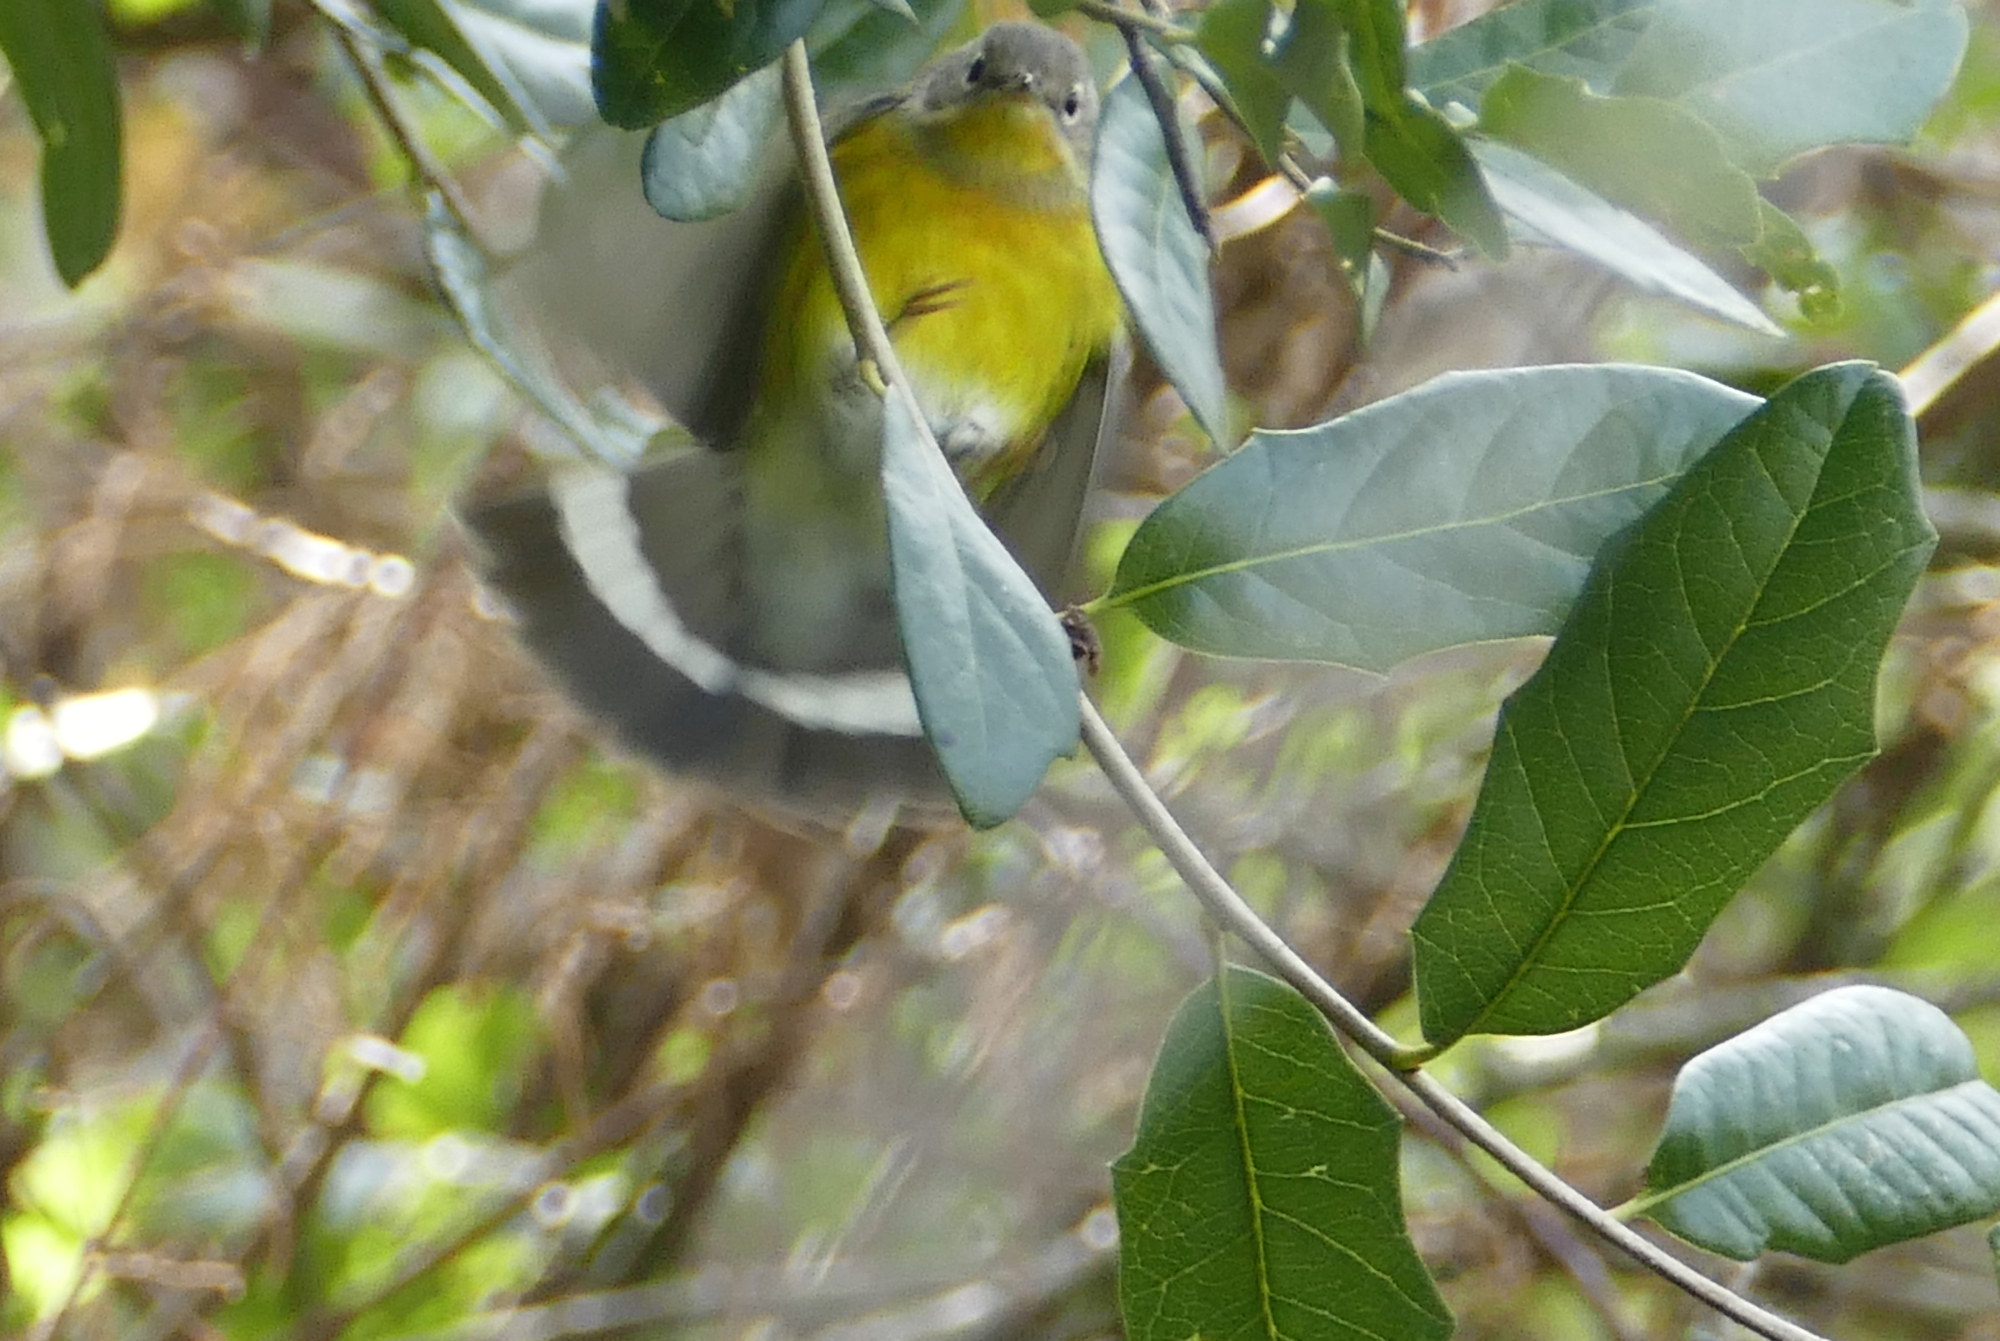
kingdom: Animalia
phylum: Chordata
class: Aves
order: Passeriformes
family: Parulidae
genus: Setophaga
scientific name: Setophaga magnolia
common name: Magnolia warbler
